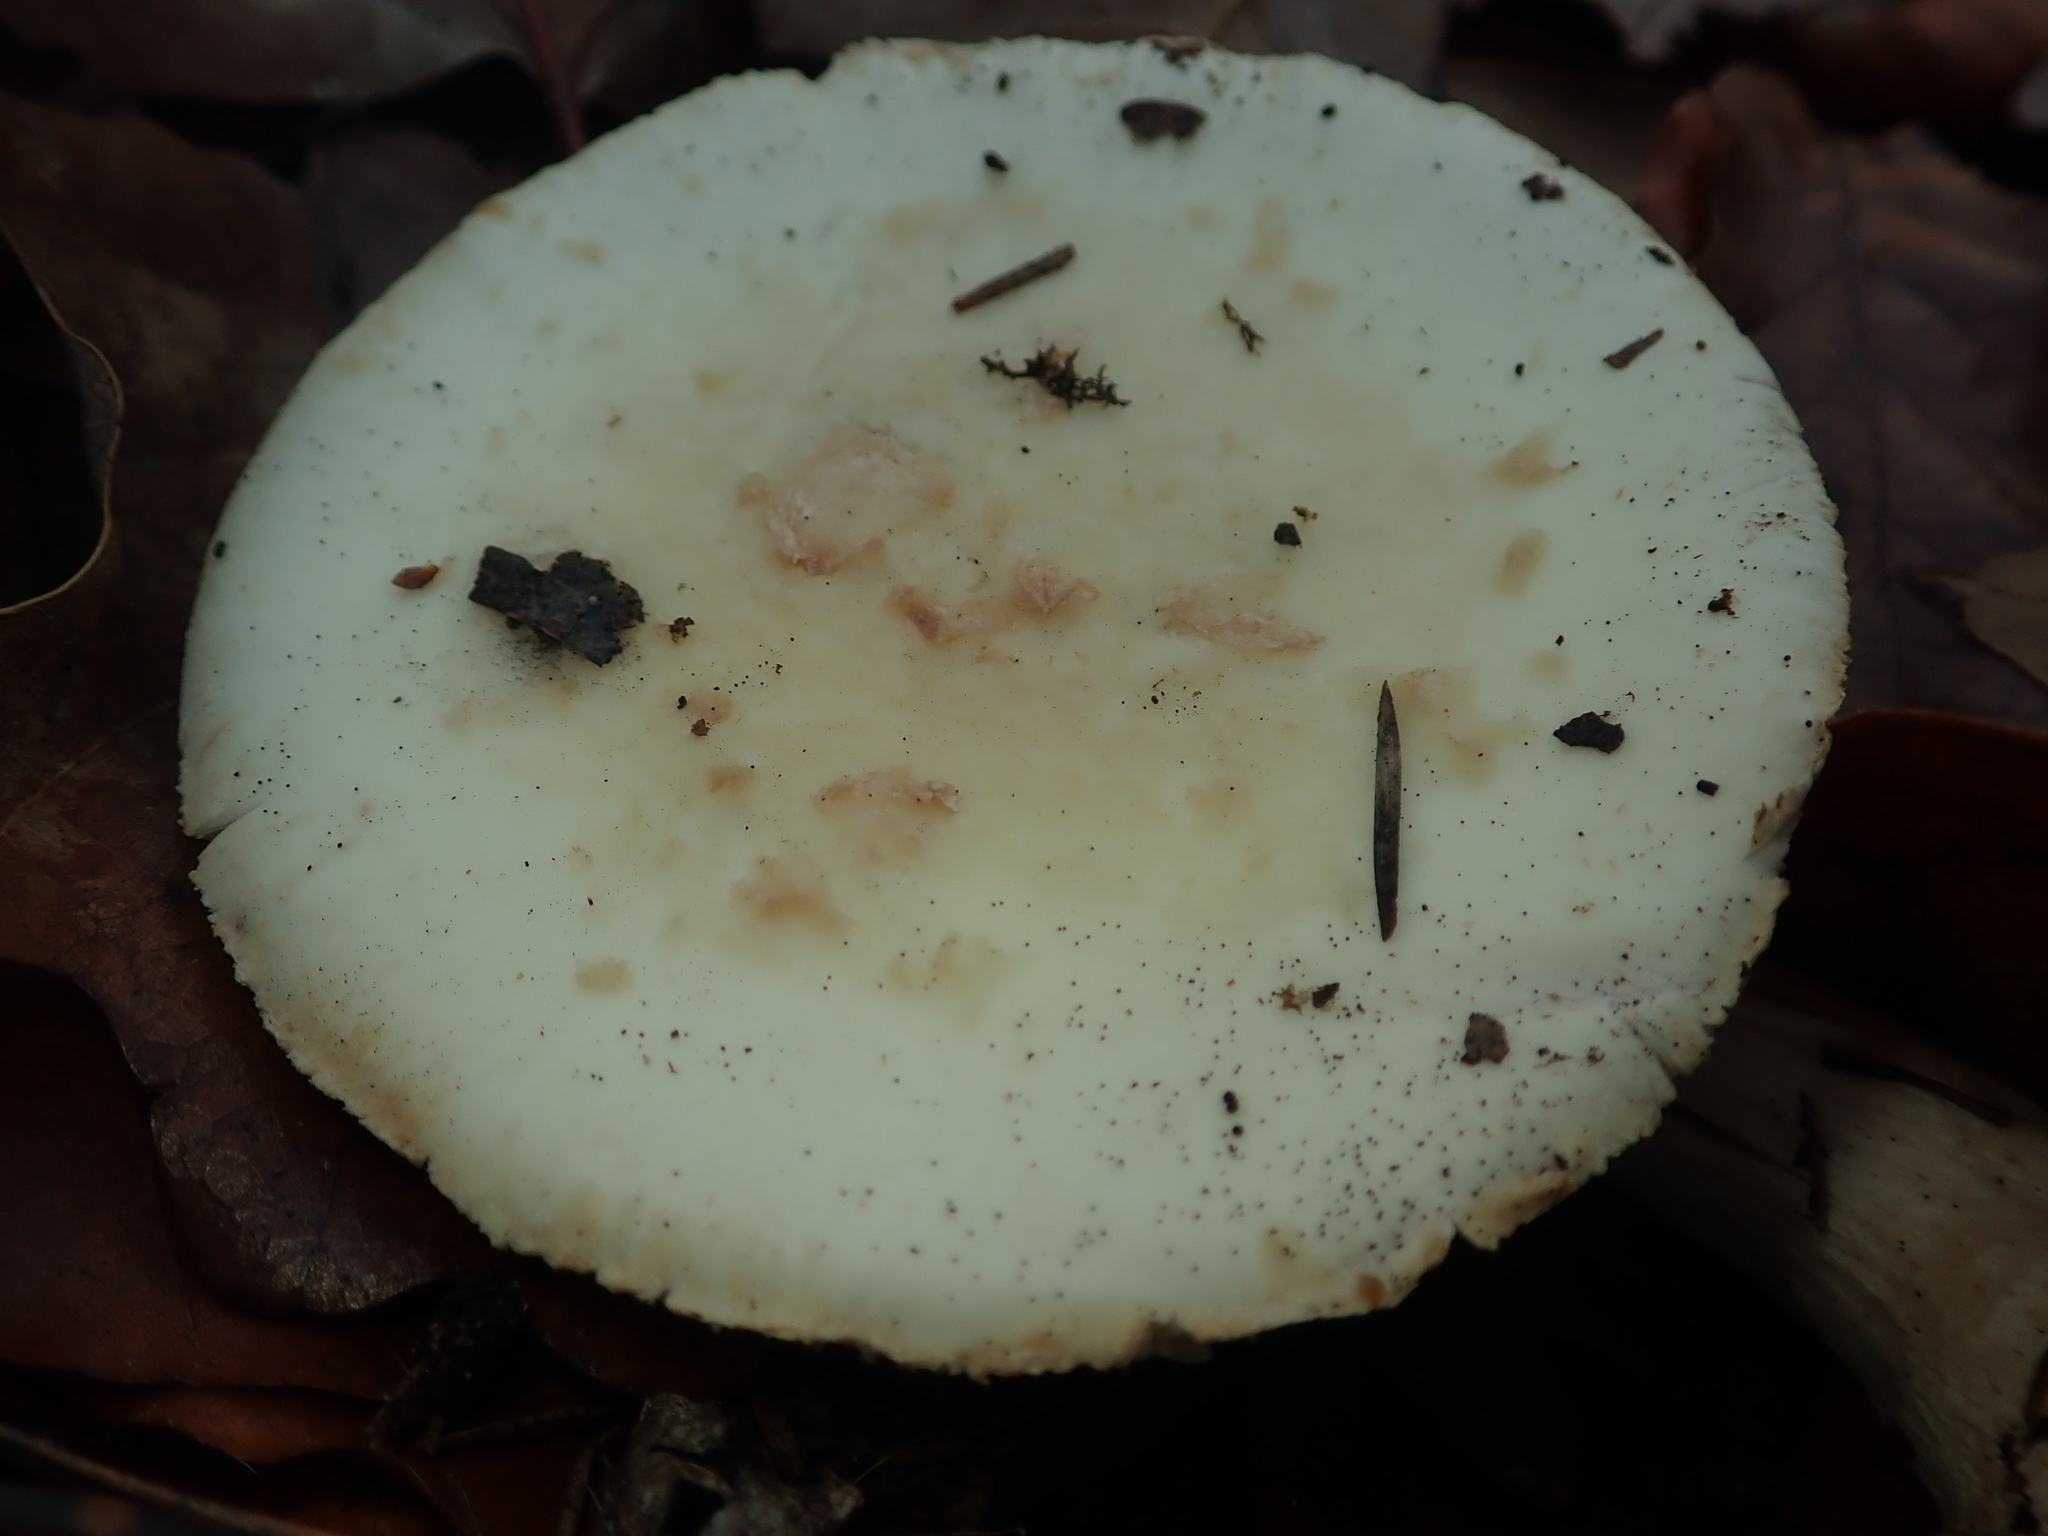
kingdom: Fungi
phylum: Basidiomycota
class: Agaricomycetes
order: Agaricales
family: Amanitaceae
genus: Amanita
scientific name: Amanita citrina
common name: False death-cap
